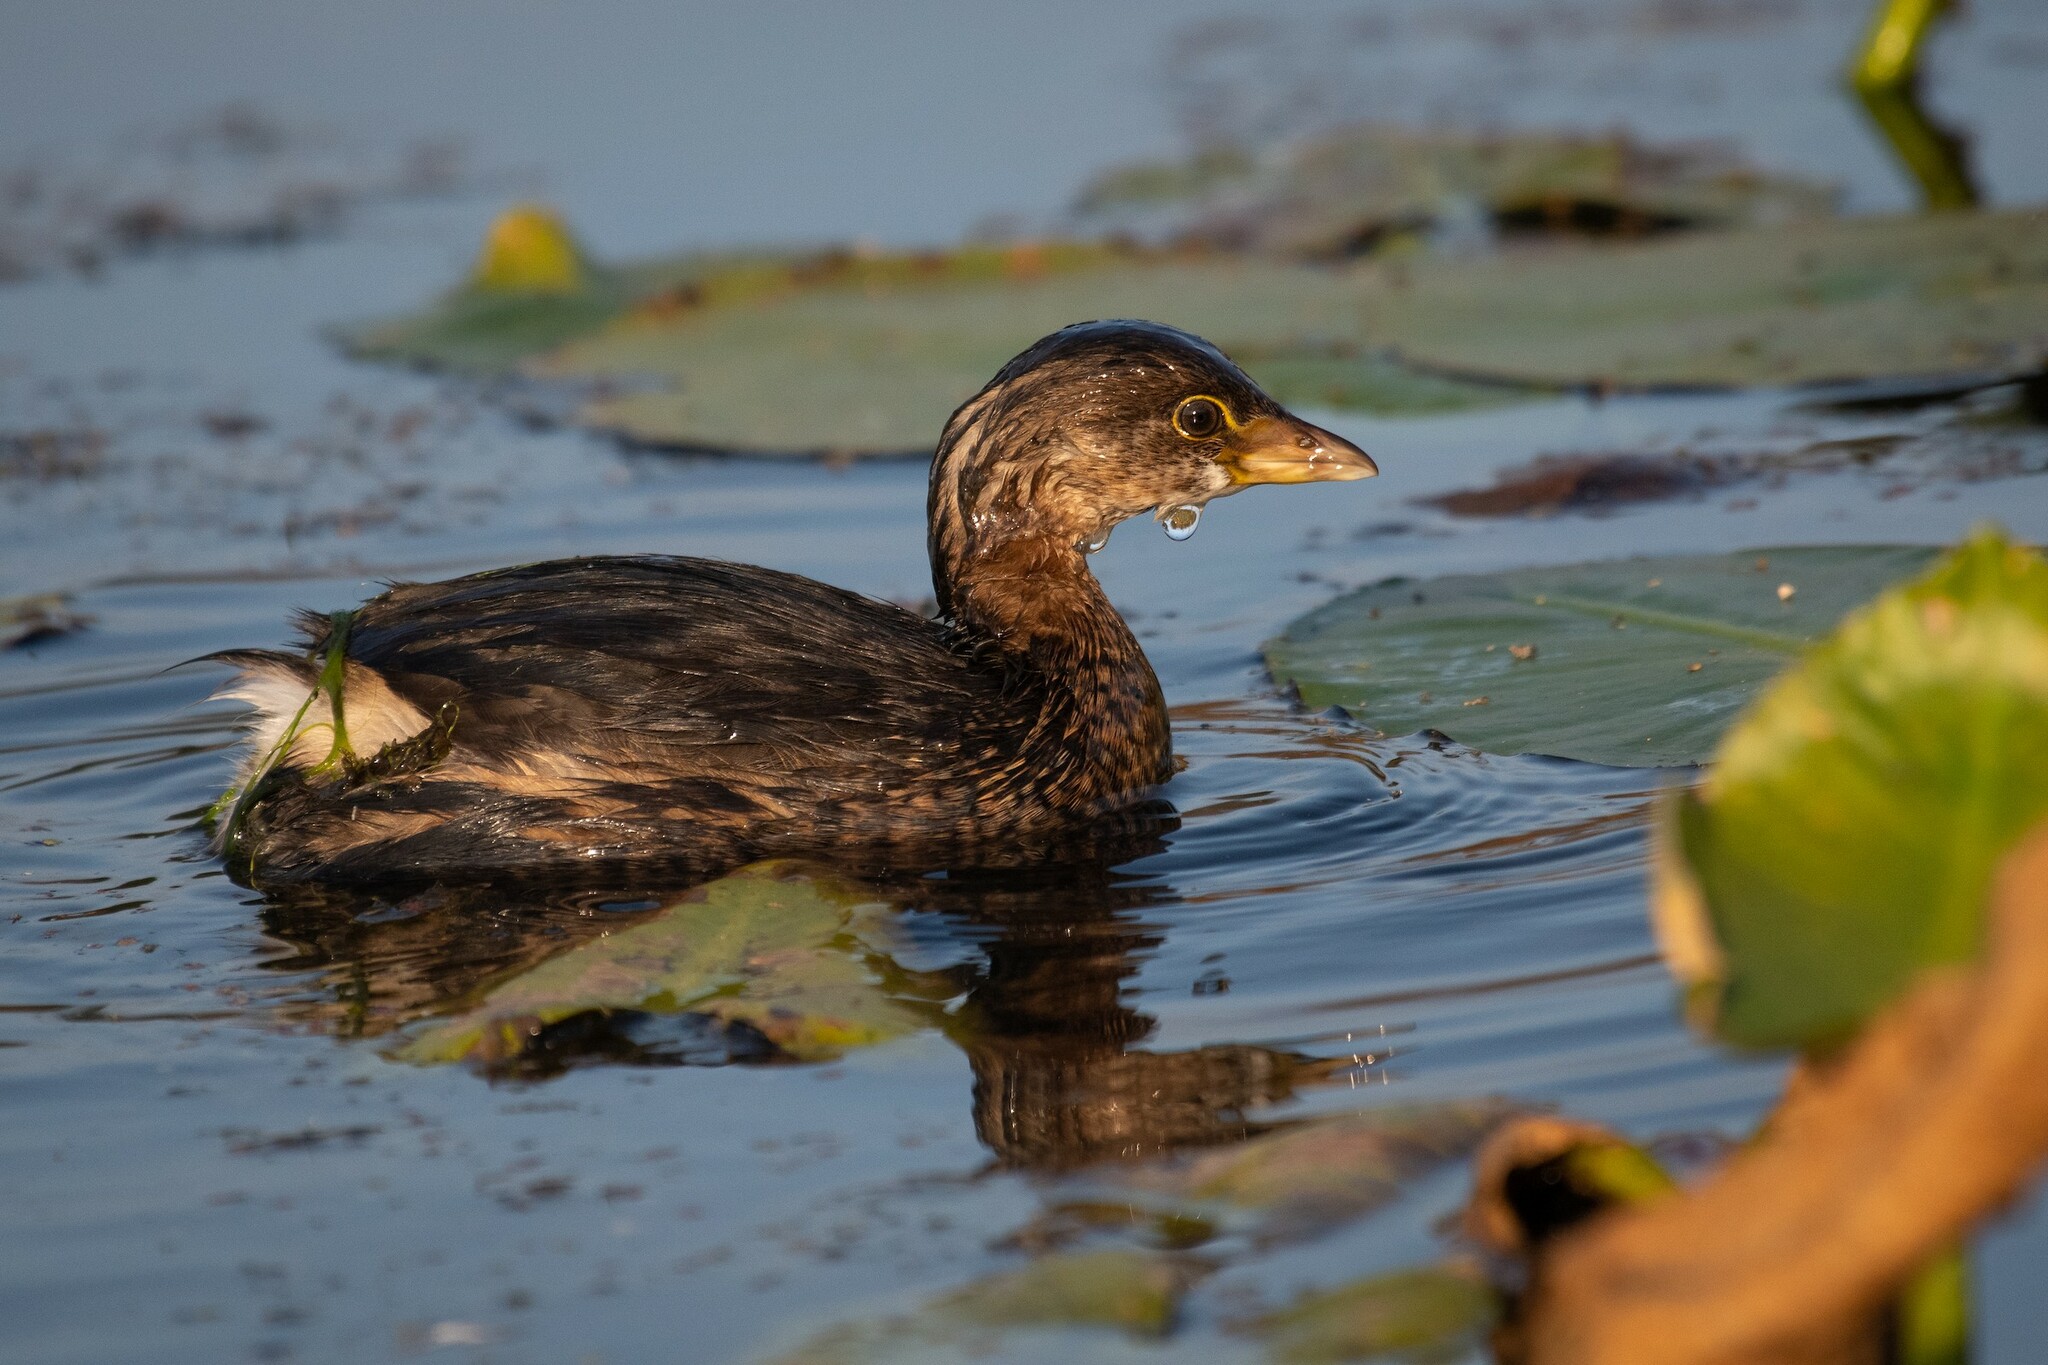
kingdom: Animalia
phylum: Chordata
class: Aves
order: Podicipediformes
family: Podicipedidae
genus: Podilymbus
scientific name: Podilymbus podiceps
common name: Pied-billed grebe
